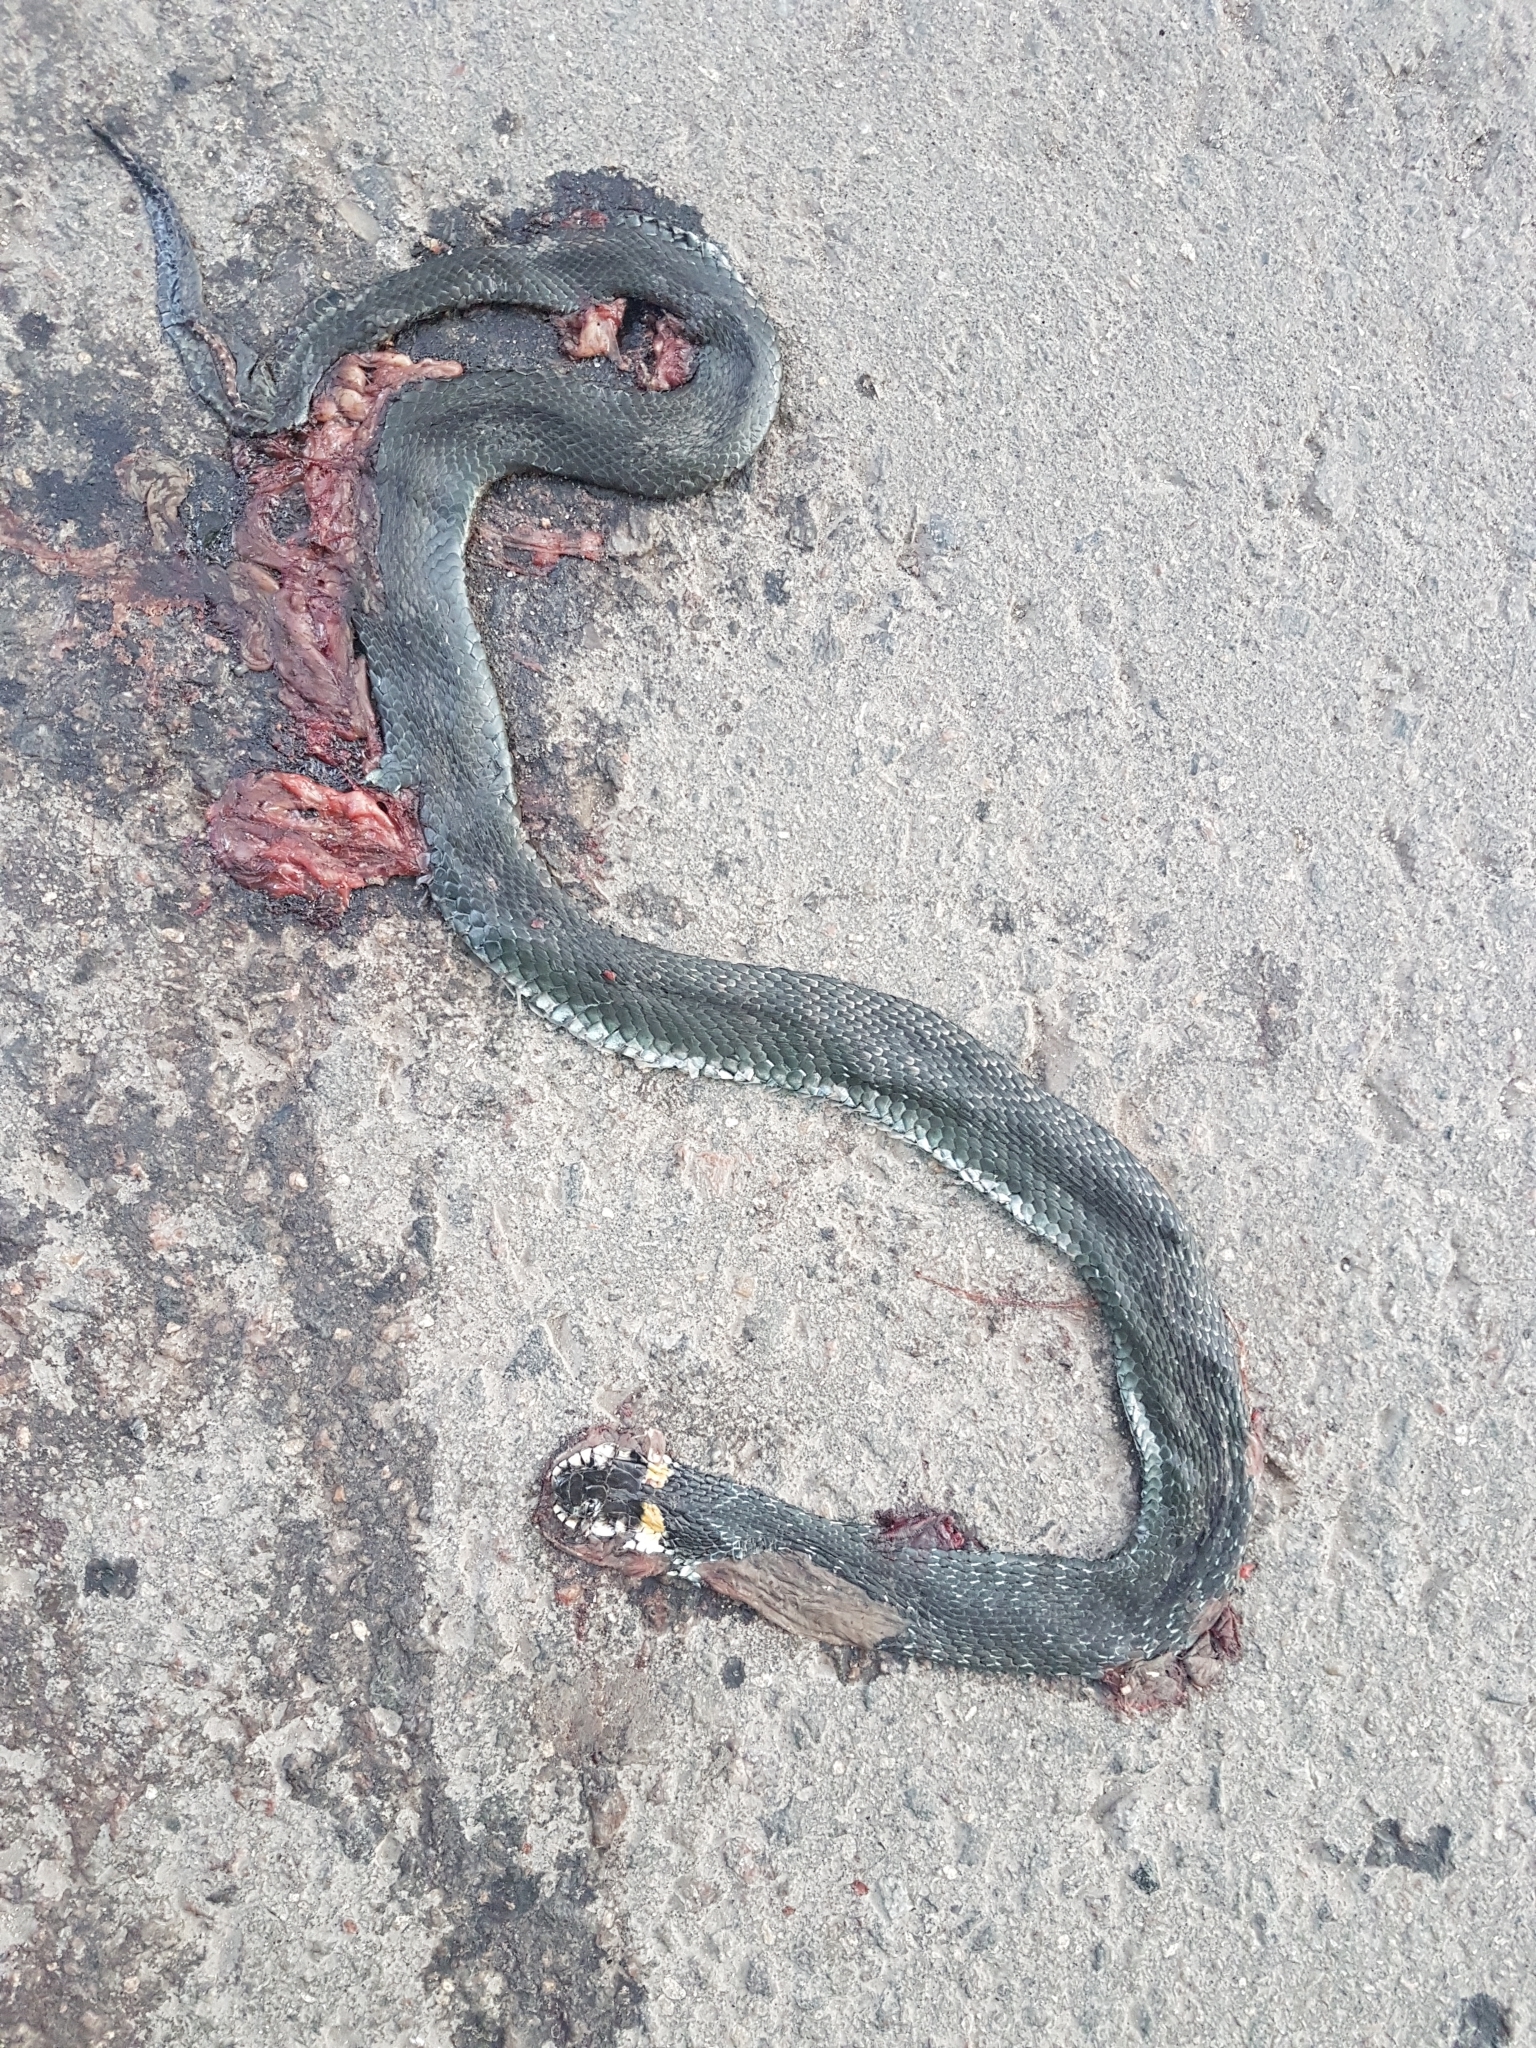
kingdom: Animalia
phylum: Chordata
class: Squamata
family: Colubridae
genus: Natrix
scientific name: Natrix natrix
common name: Grass snake
